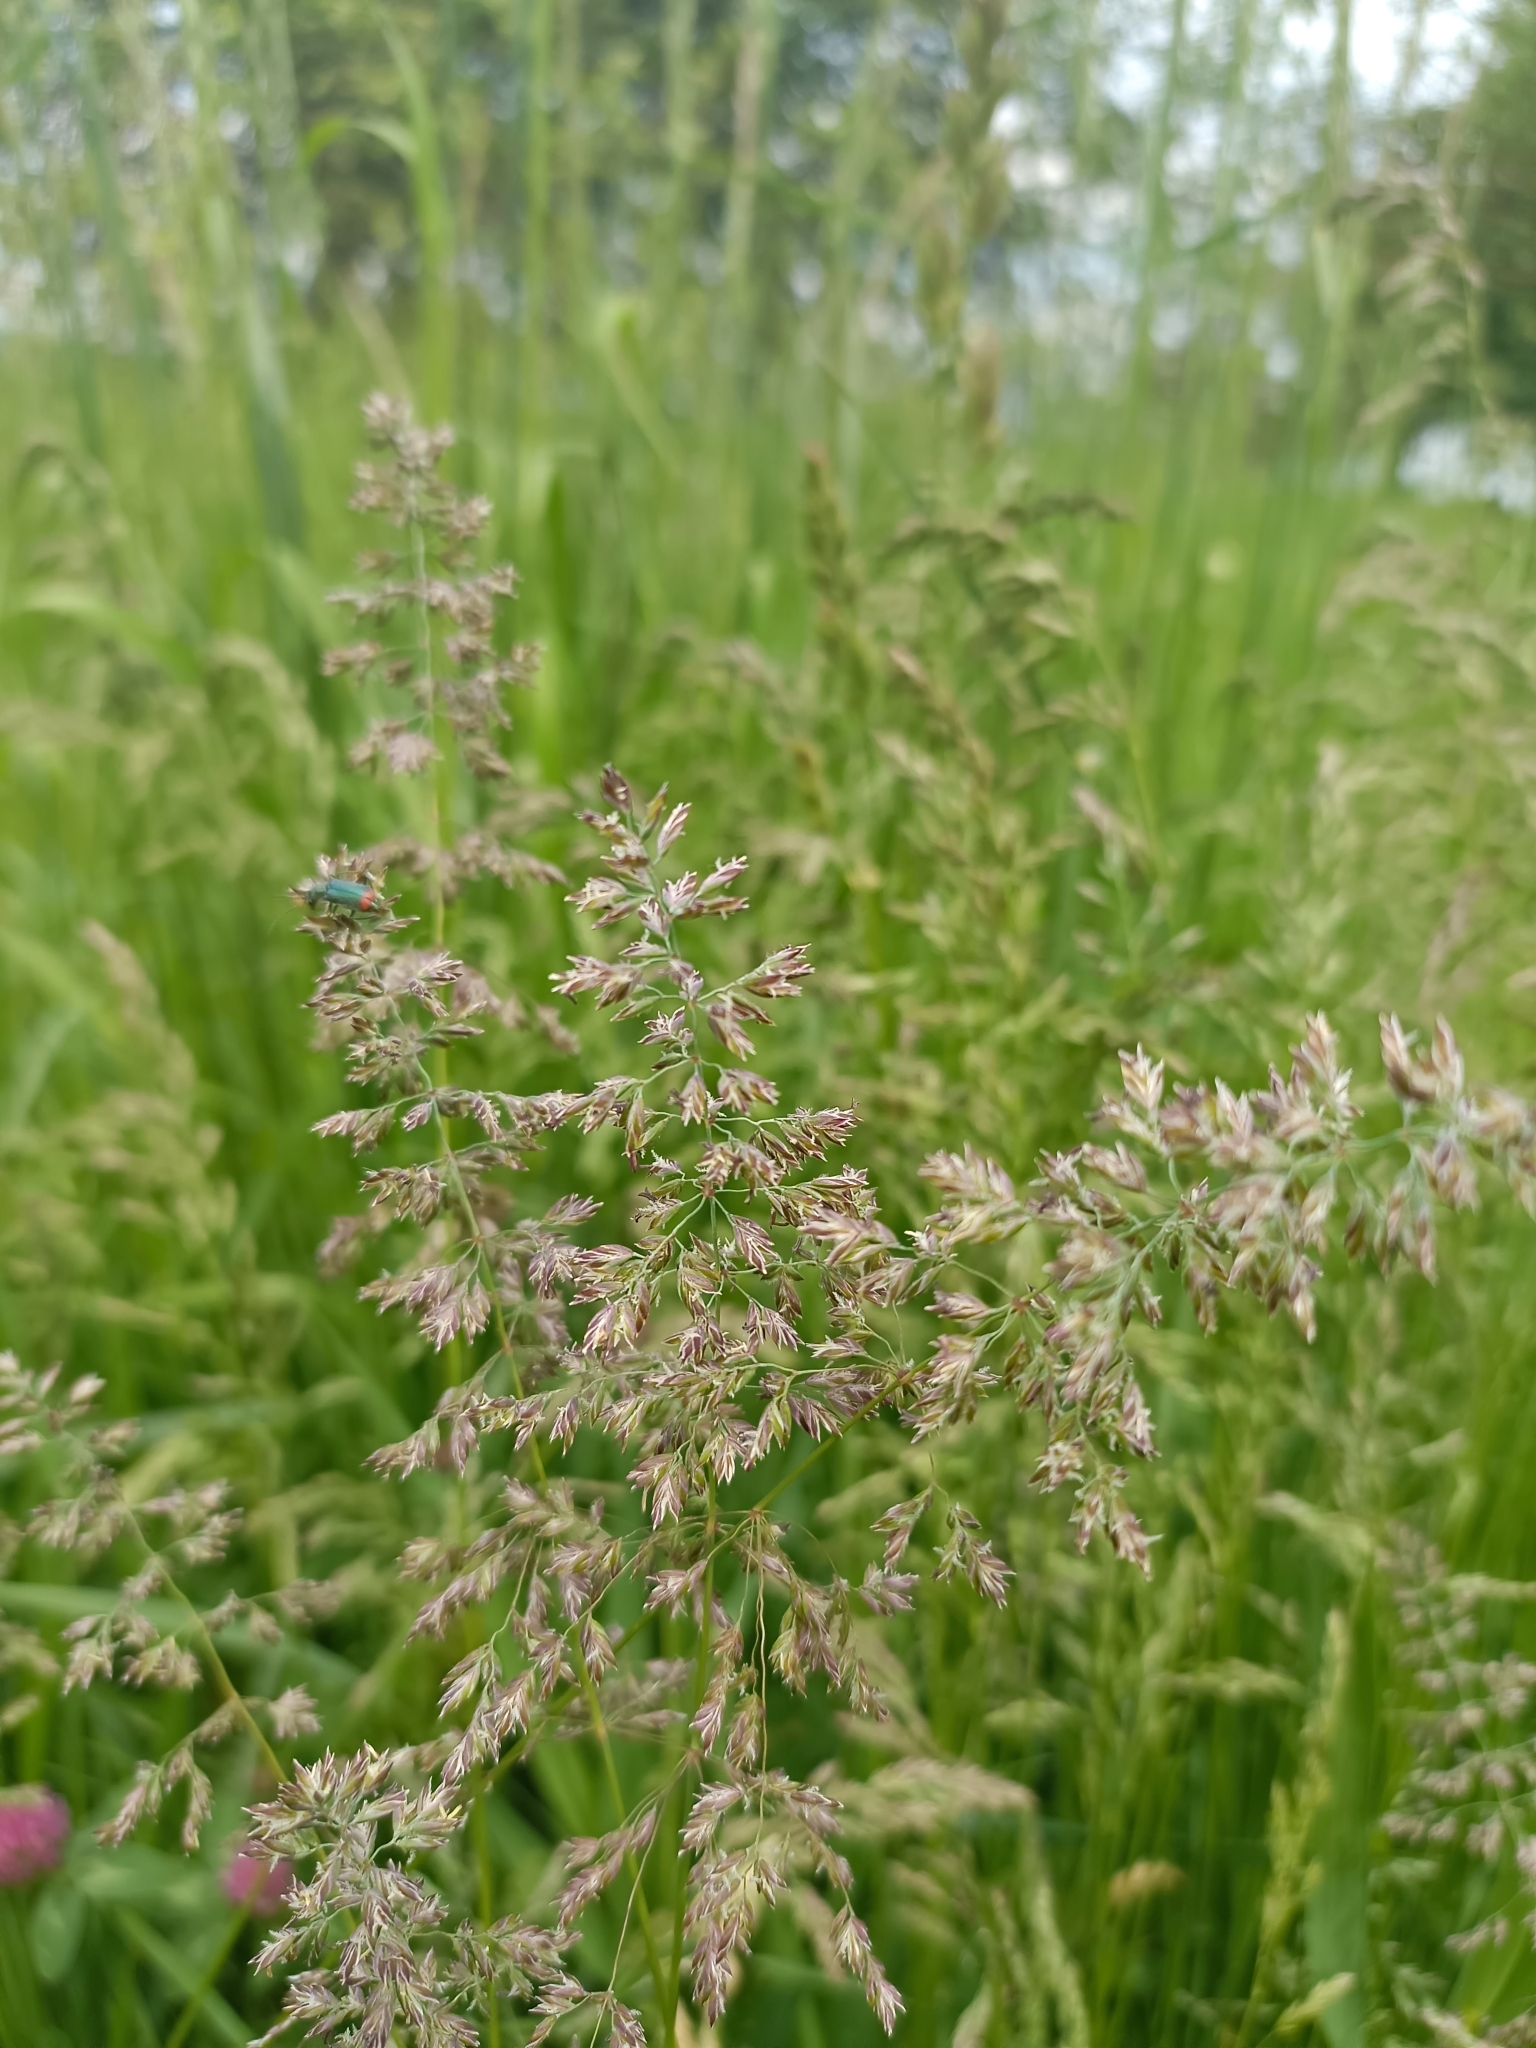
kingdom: Plantae
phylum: Tracheophyta
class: Liliopsida
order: Poales
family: Poaceae
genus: Poa
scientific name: Poa pratensis
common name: Kentucky bluegrass
